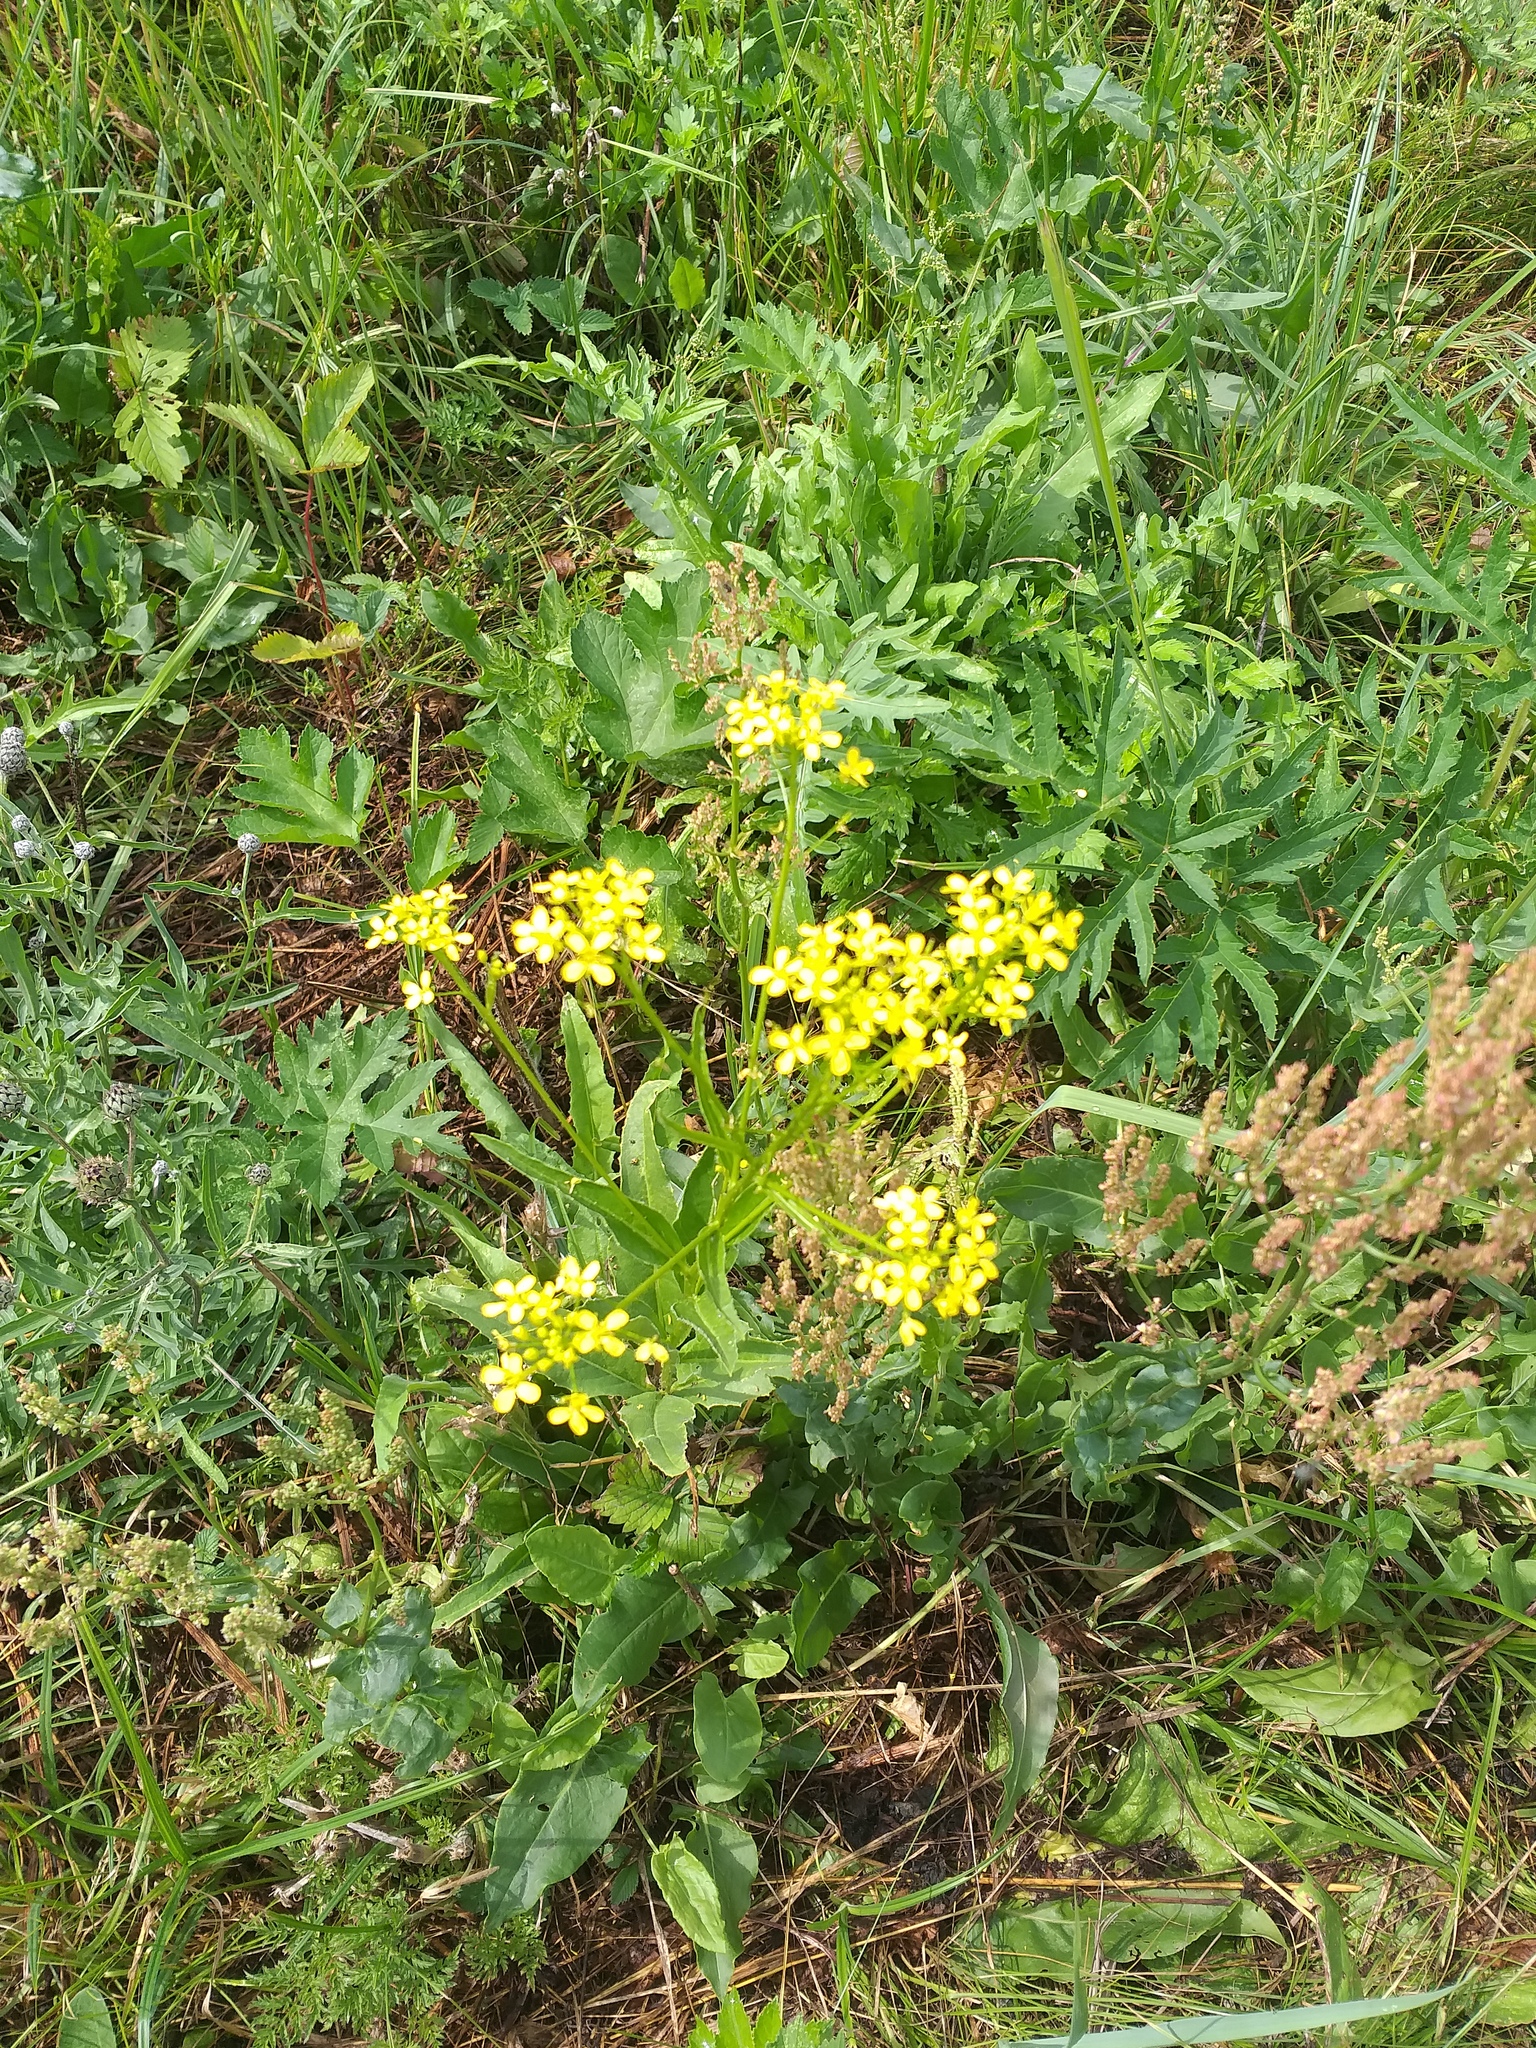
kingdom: Plantae
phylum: Tracheophyta
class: Magnoliopsida
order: Brassicales
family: Brassicaceae
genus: Bunias
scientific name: Bunias orientalis
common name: Warty-cabbage
